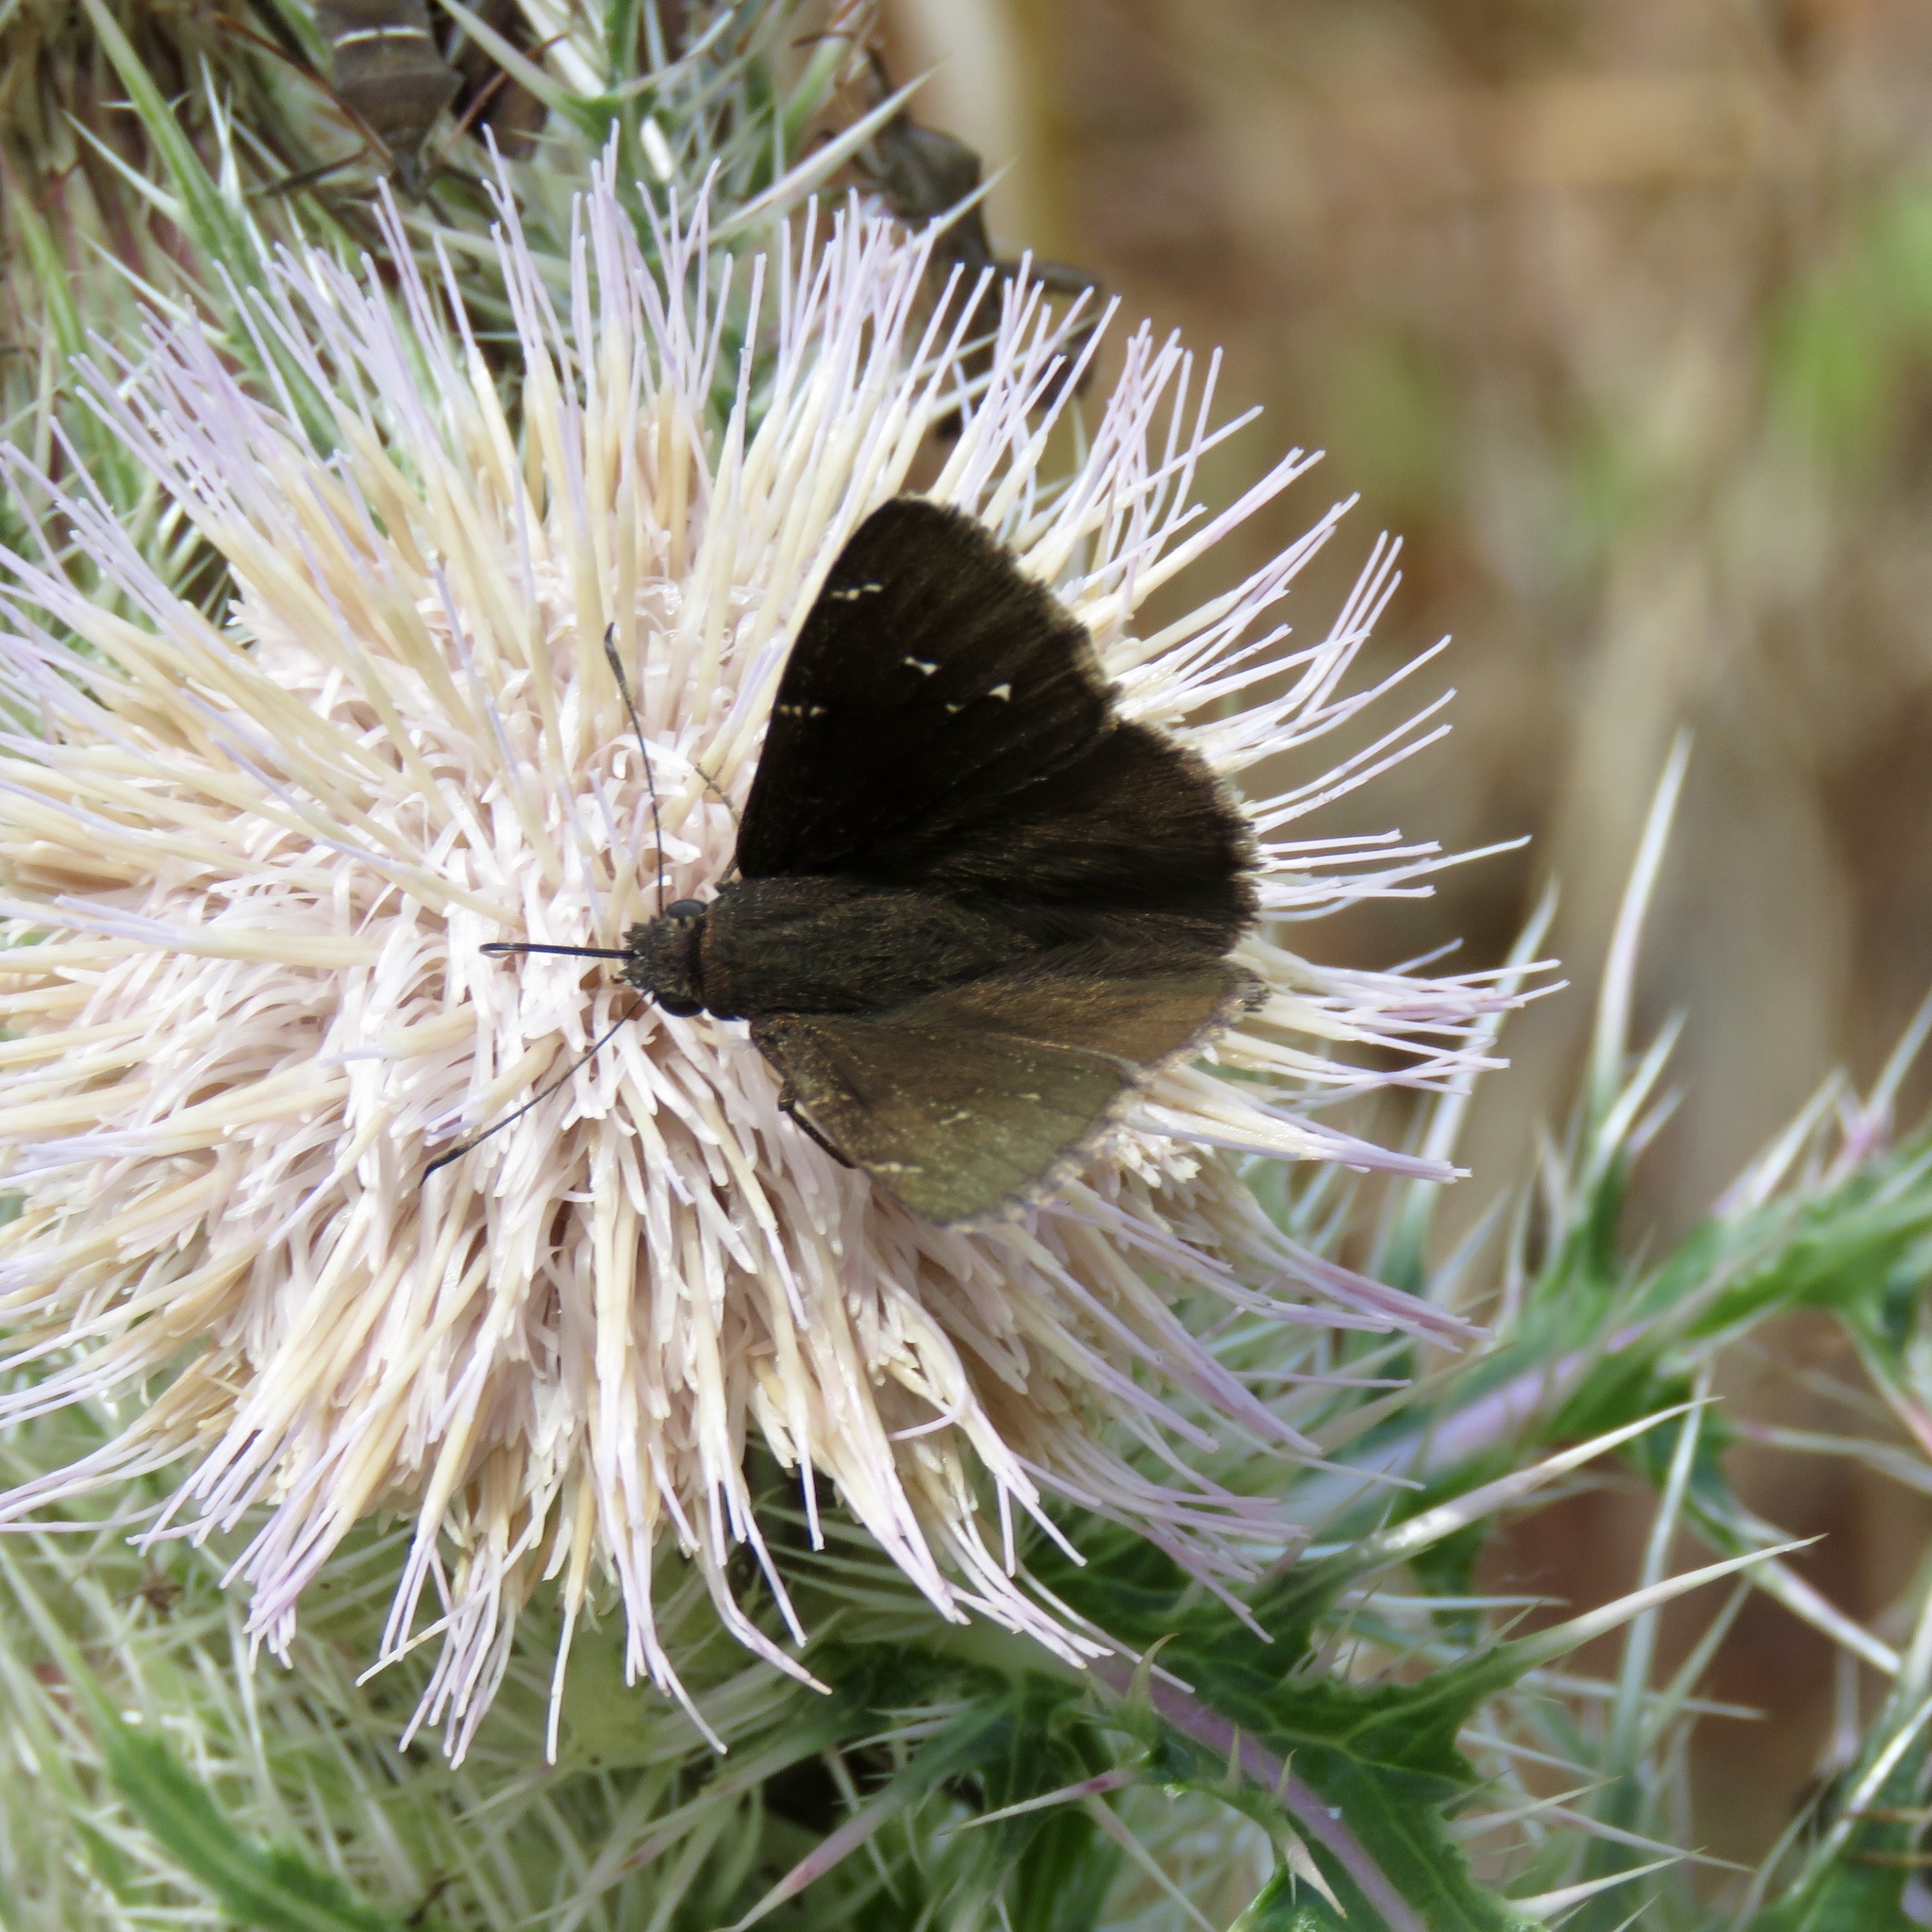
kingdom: Animalia
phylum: Arthropoda
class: Insecta
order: Lepidoptera
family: Hesperiidae
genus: Thorybes
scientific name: Thorybes pylades
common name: Northern cloudywing
